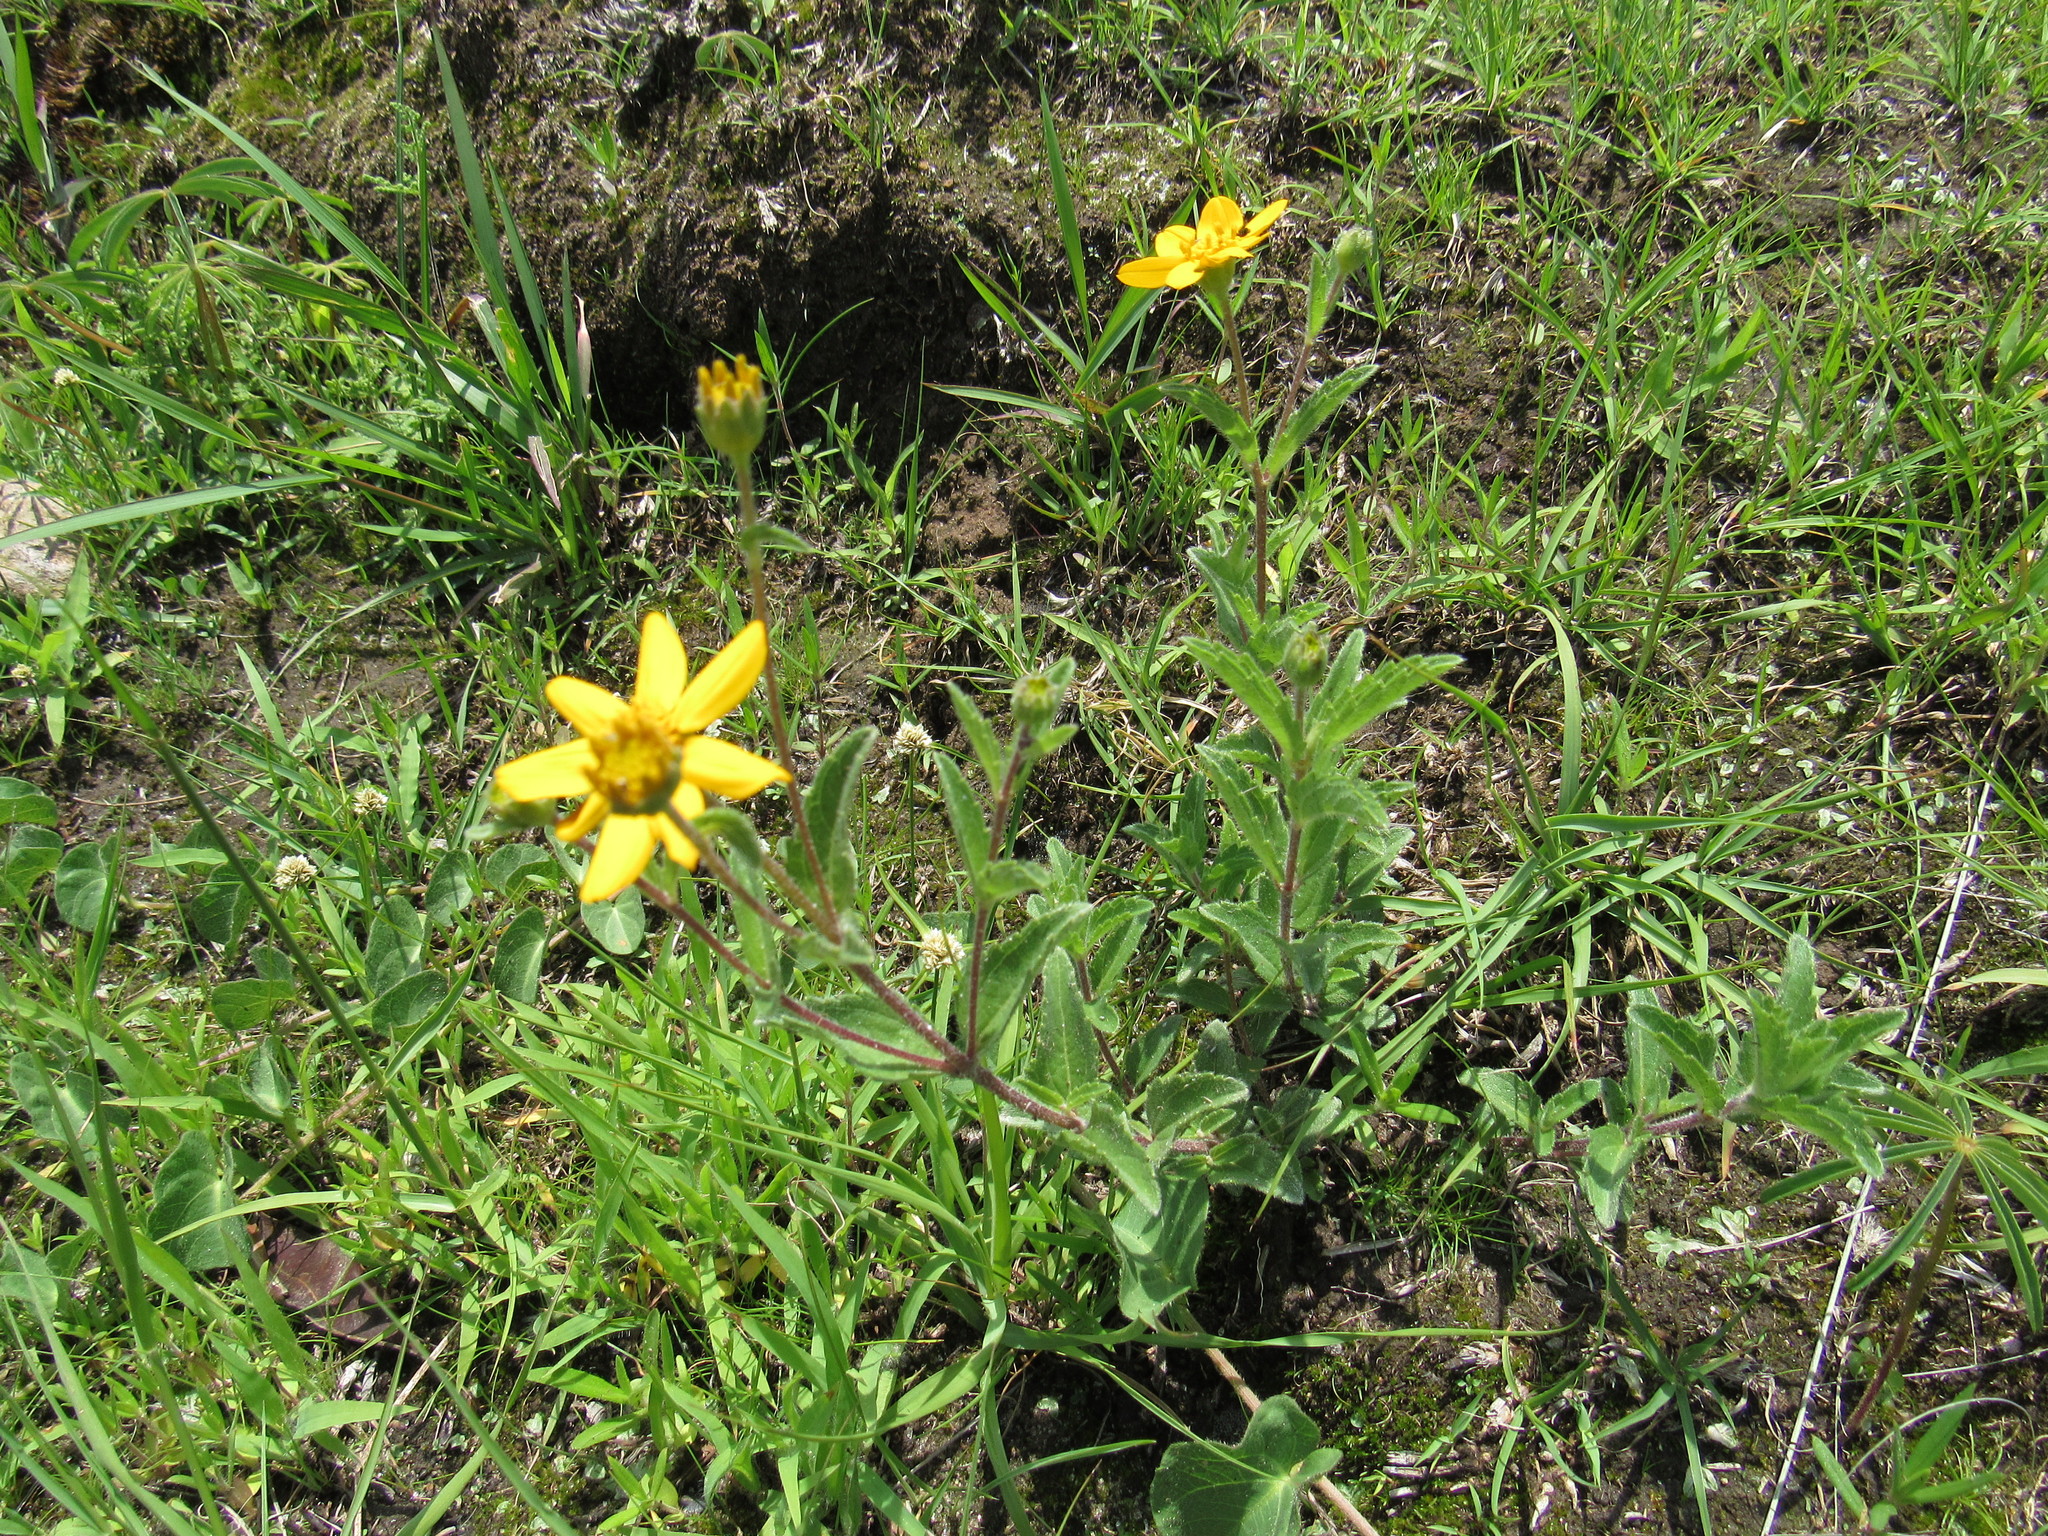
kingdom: Plantae
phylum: Tracheophyta
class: Magnoliopsida
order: Asterales
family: Asteraceae
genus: Lasianthaea
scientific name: Lasianthaea aurea
